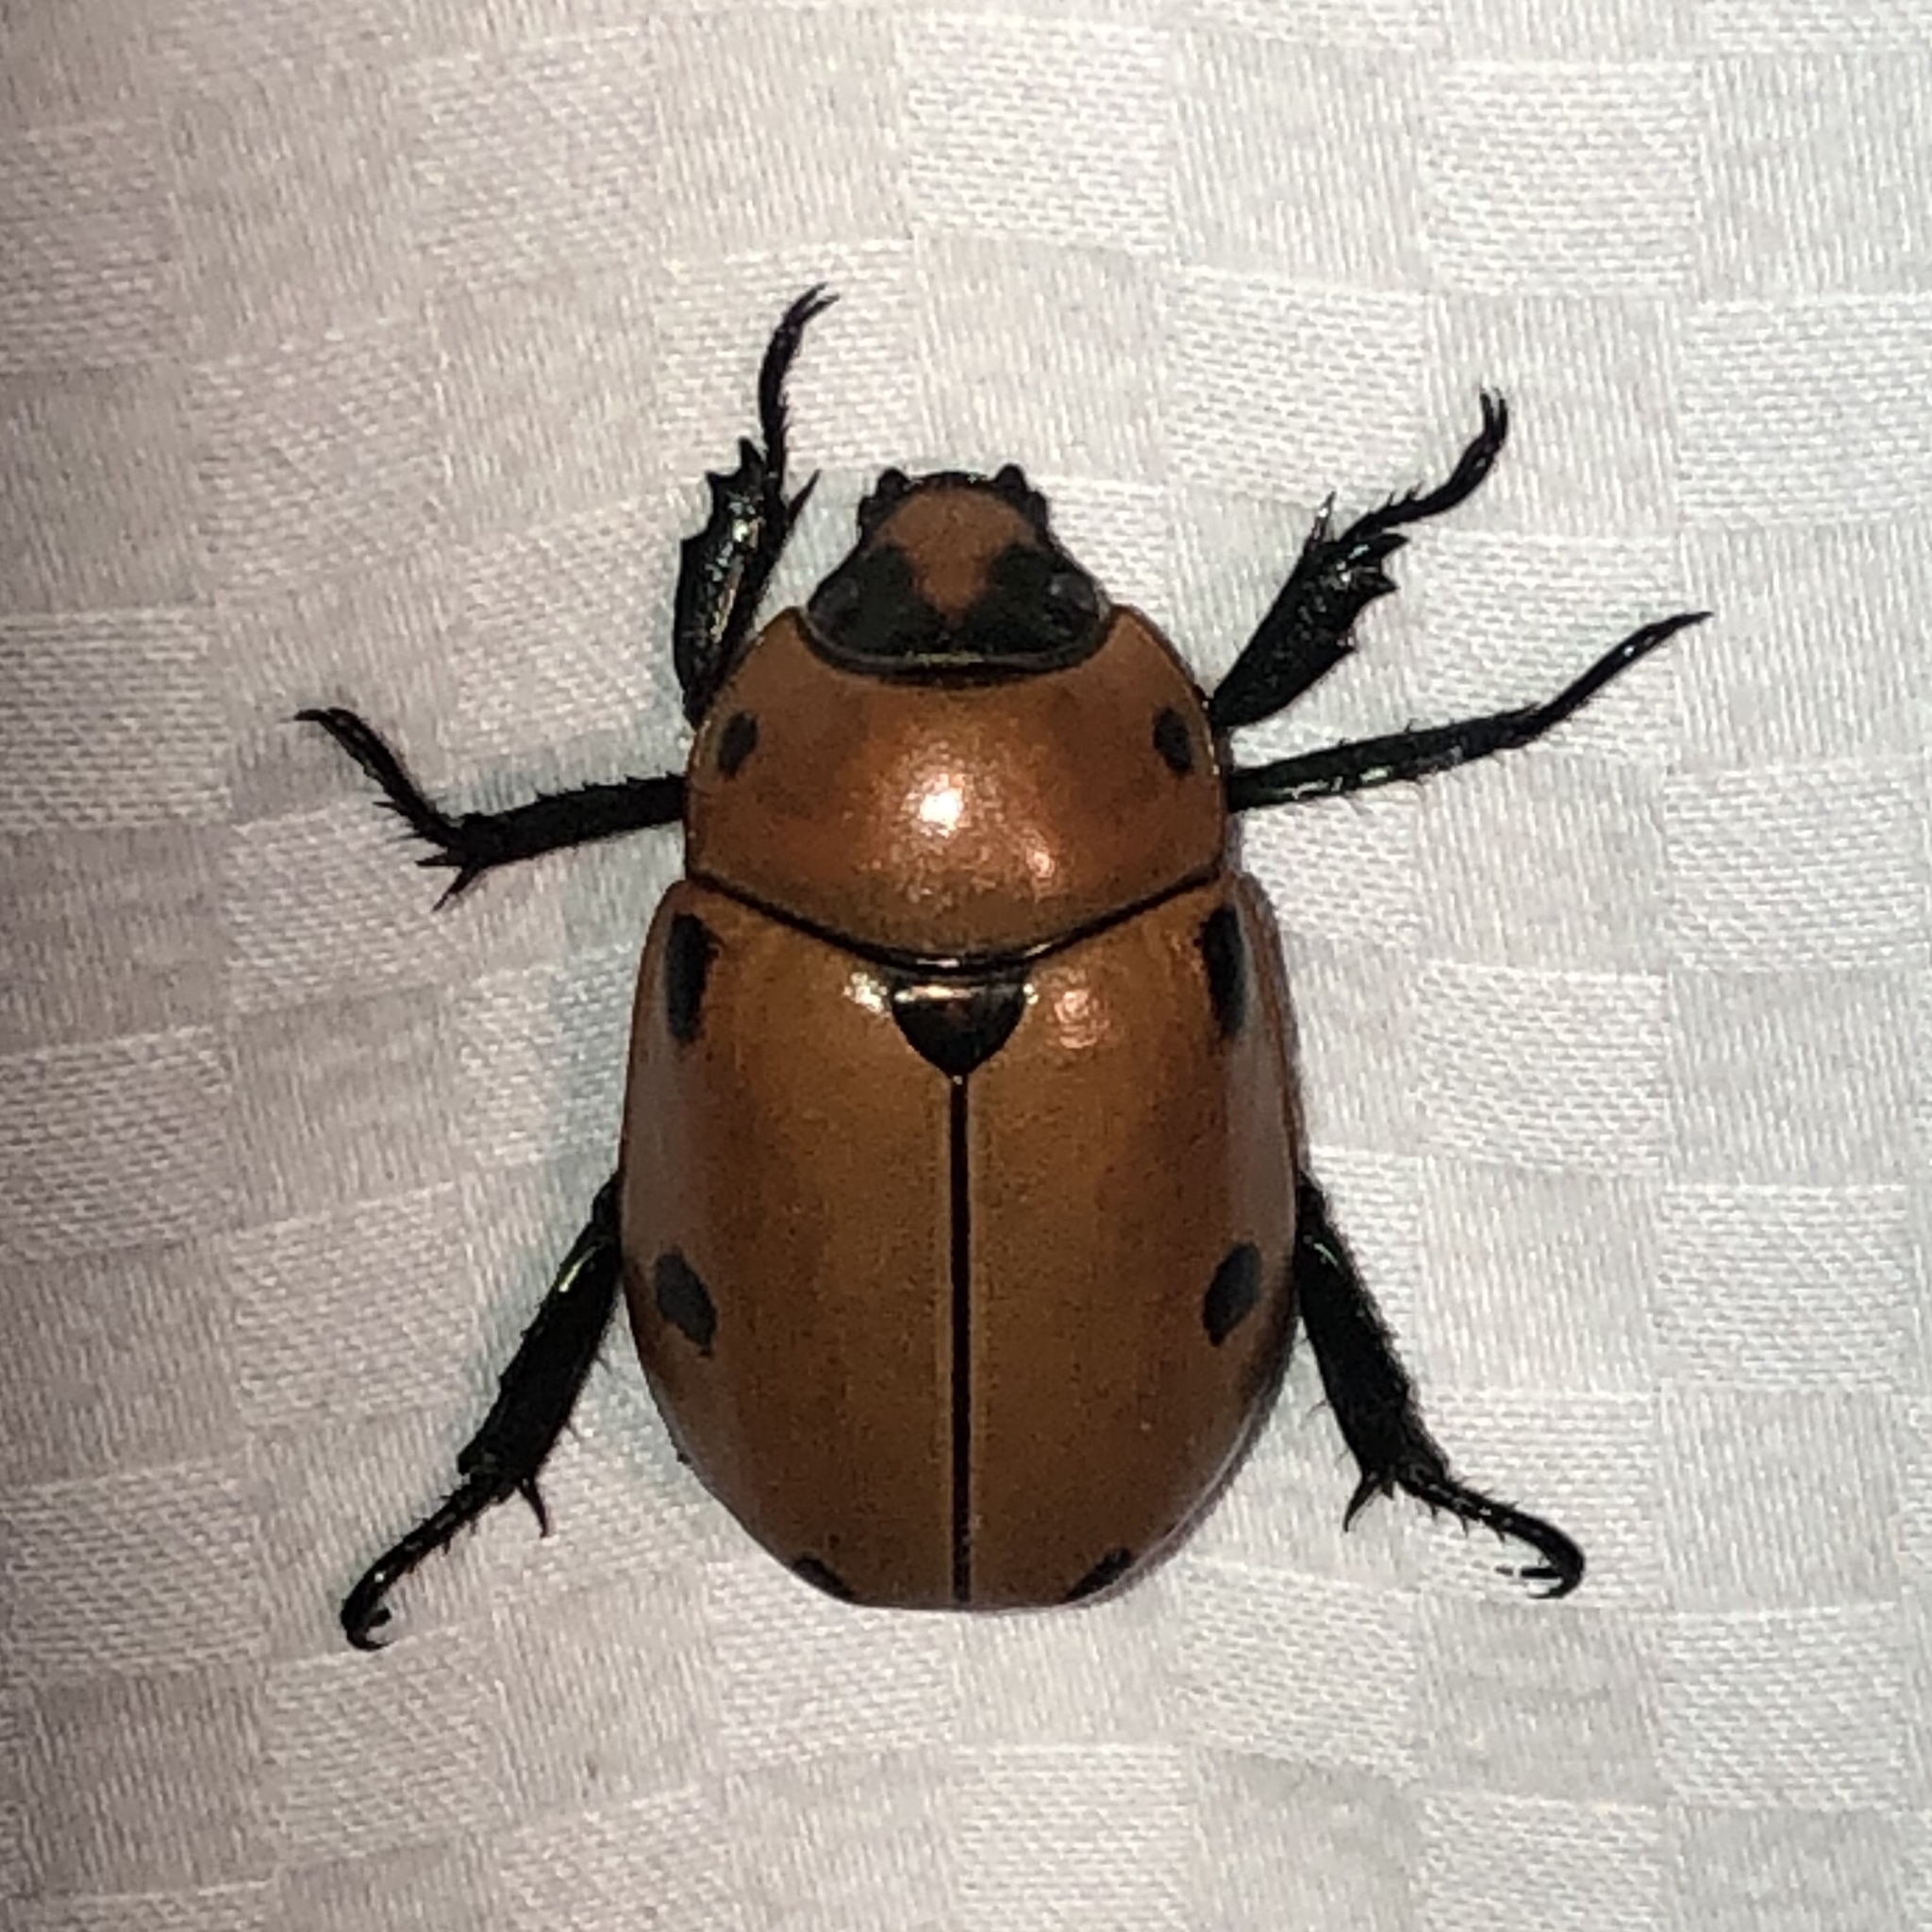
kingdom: Animalia
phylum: Arthropoda
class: Insecta
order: Coleoptera
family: Scarabaeidae
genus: Pelidnota
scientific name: Pelidnota punctata
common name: Grapevine beetle
